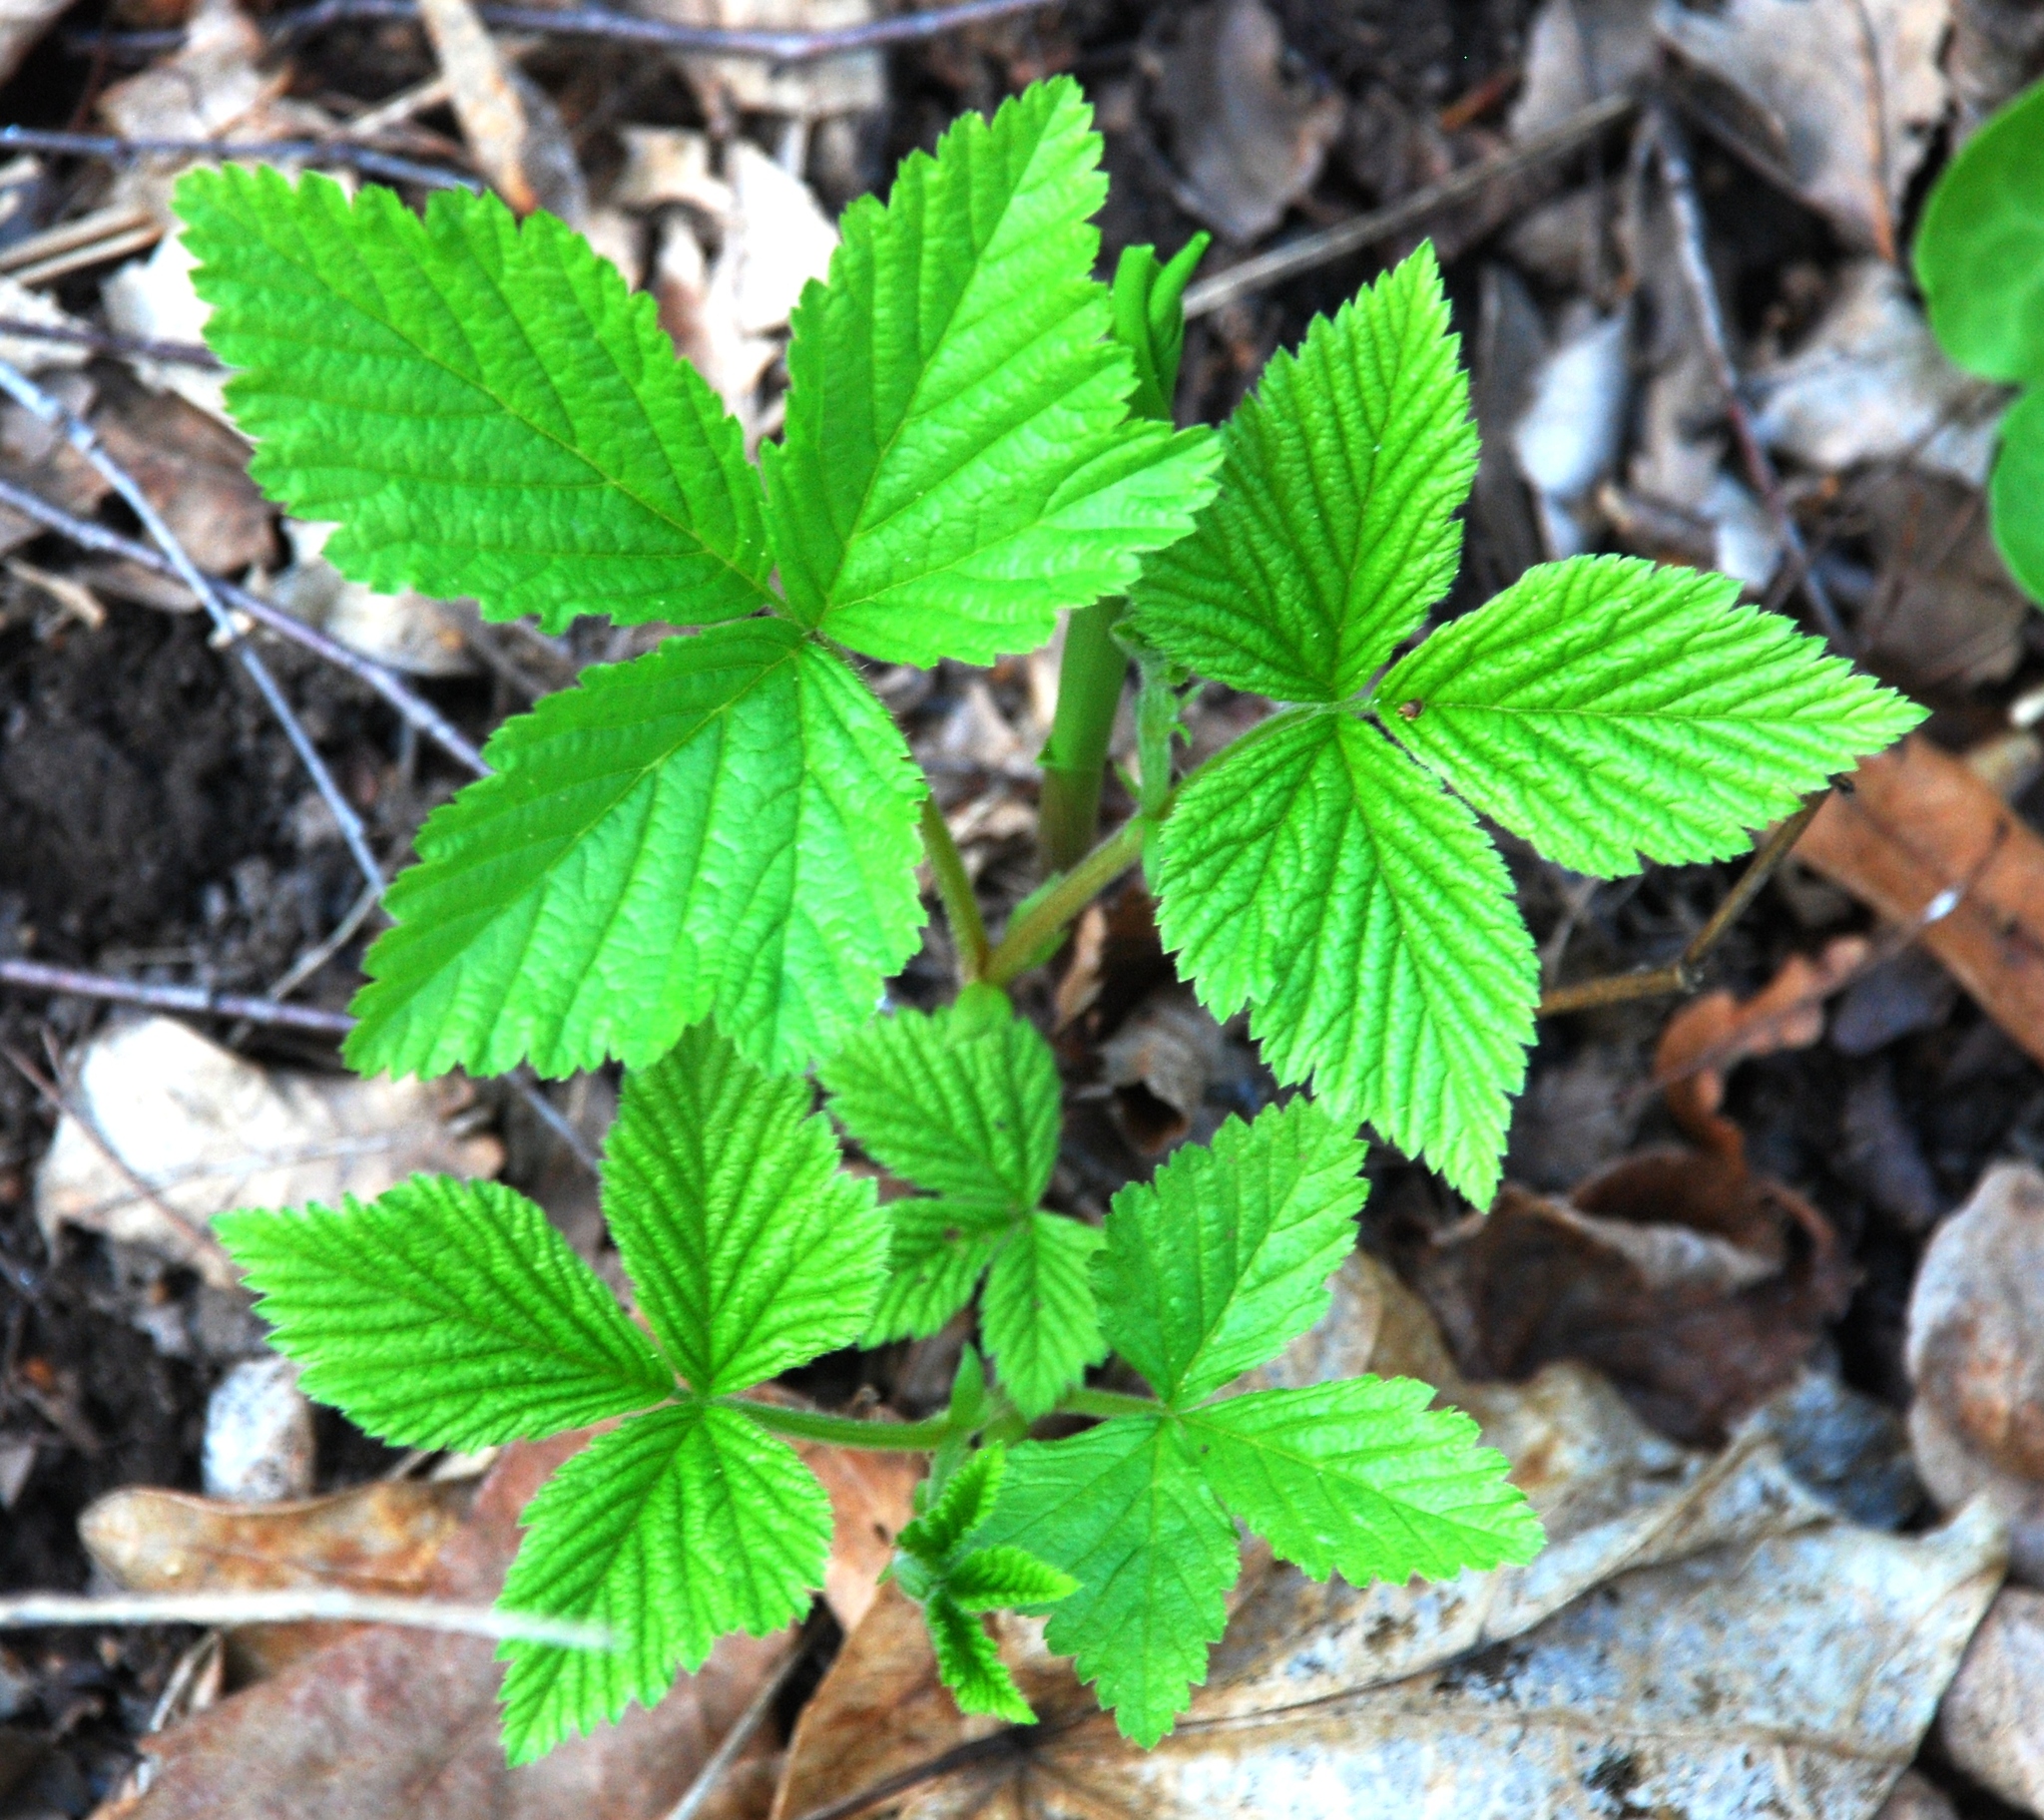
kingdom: Plantae
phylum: Tracheophyta
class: Magnoliopsida
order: Rosales
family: Rosaceae
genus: Rubus
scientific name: Rubus saxatilis
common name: Stone bramble
